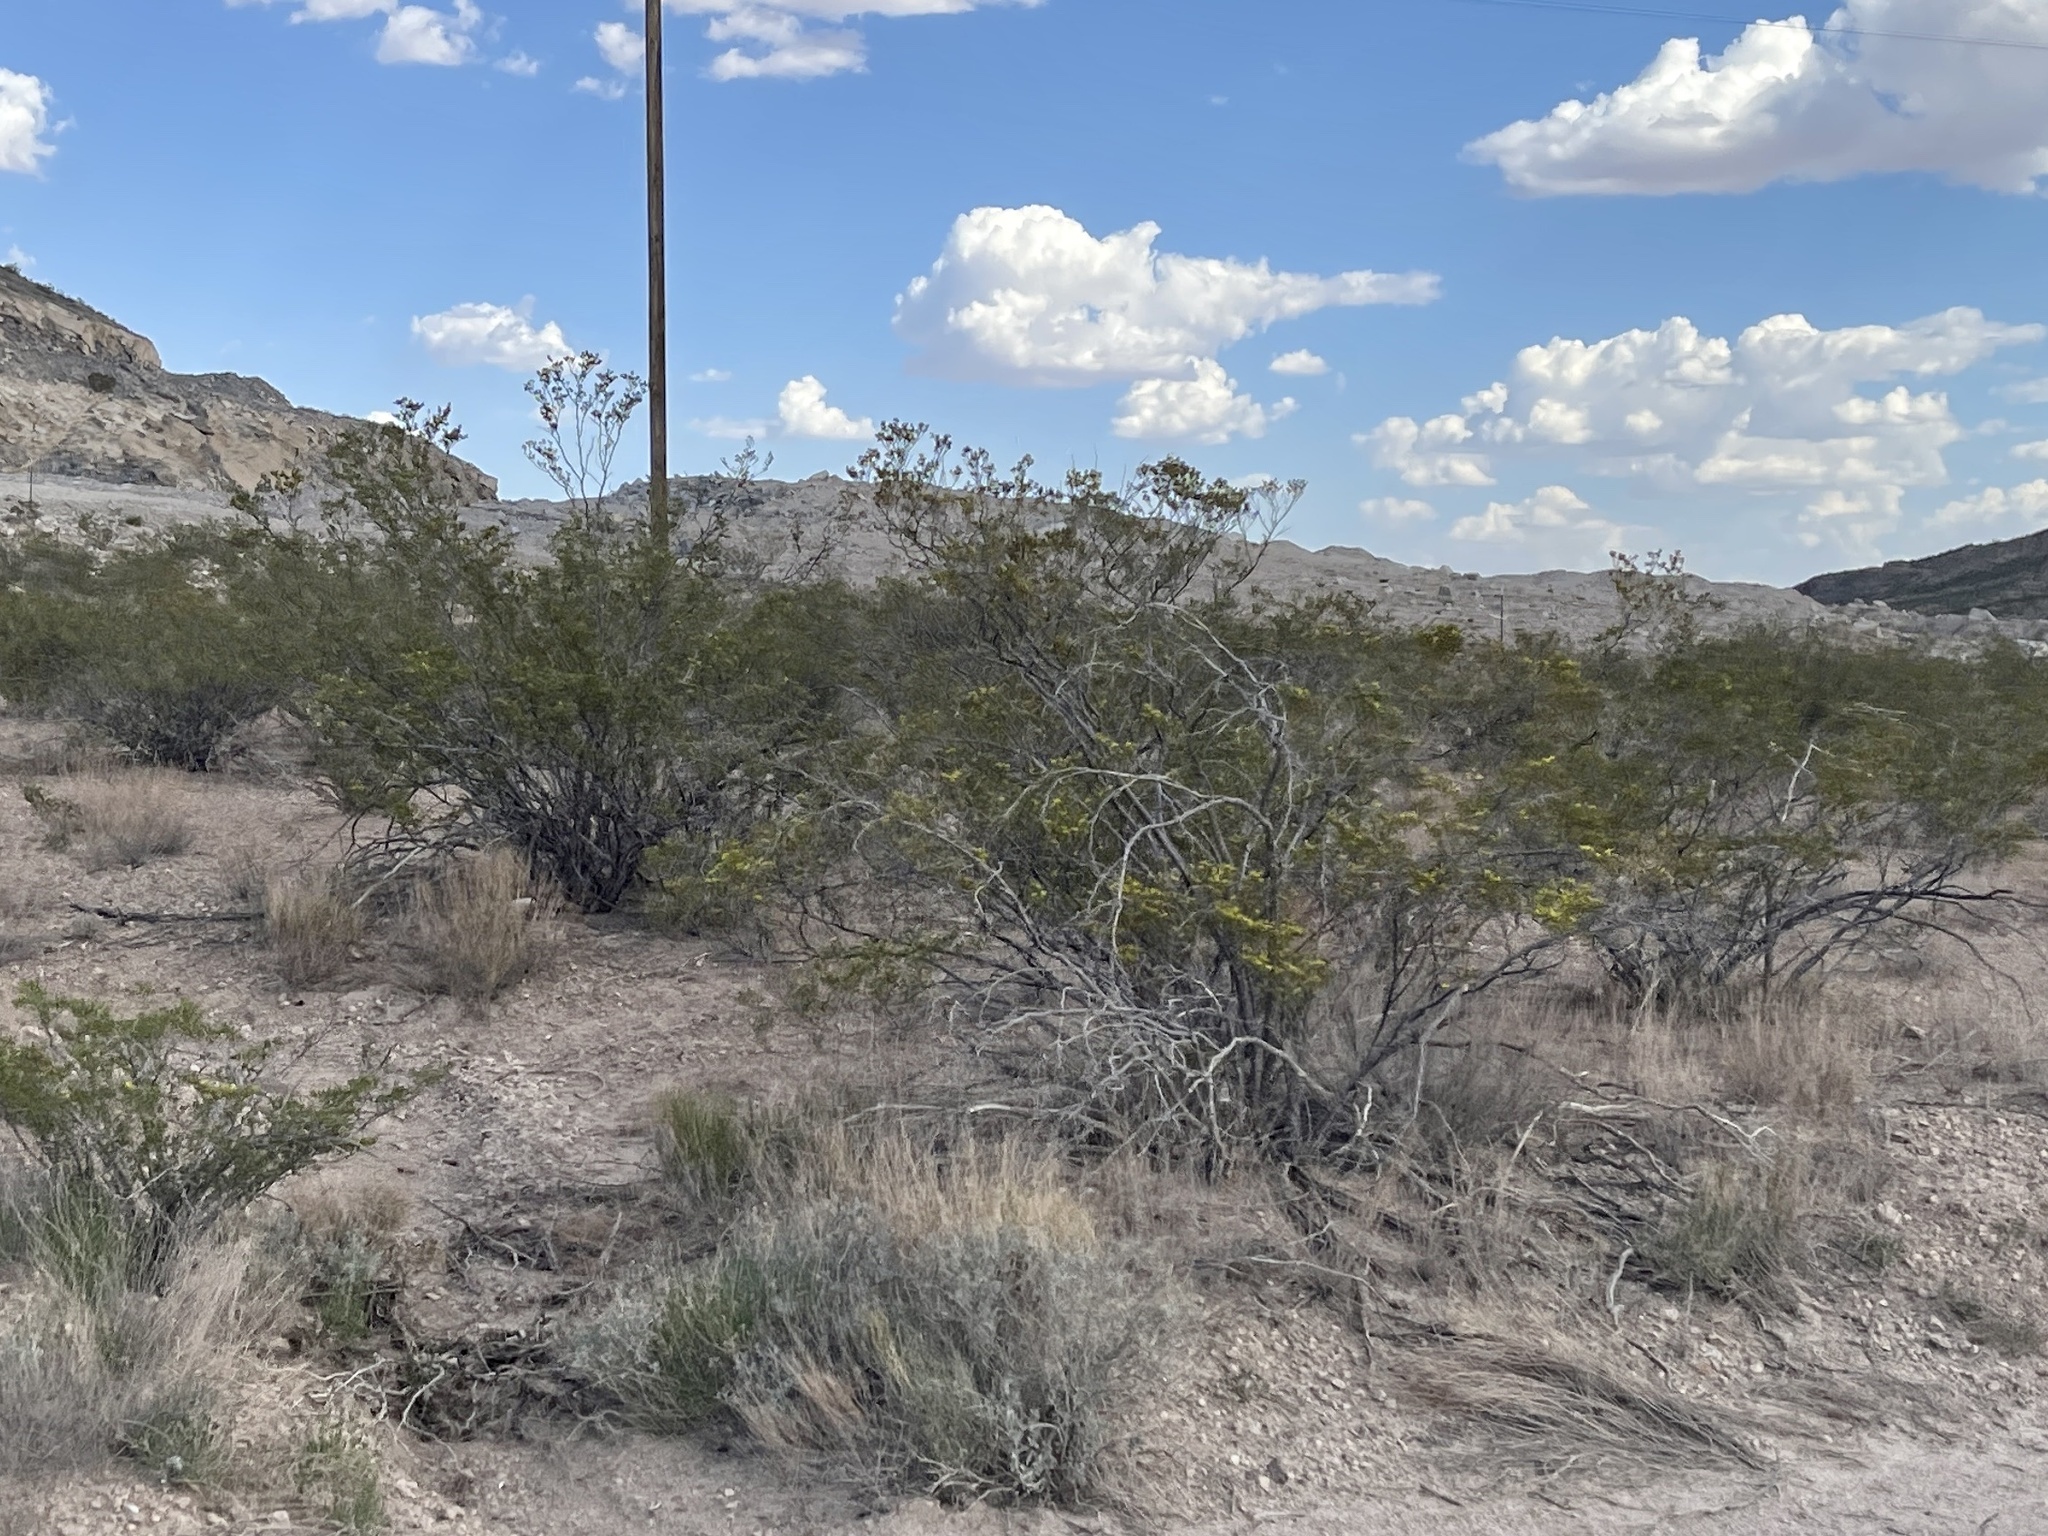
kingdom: Plantae
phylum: Tracheophyta
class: Magnoliopsida
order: Zygophyllales
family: Zygophyllaceae
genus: Larrea
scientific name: Larrea tridentata
